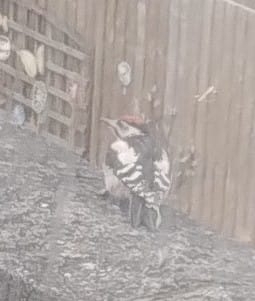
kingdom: Animalia
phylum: Chordata
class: Aves
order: Piciformes
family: Picidae
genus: Dendrocopos
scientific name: Dendrocopos major
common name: Great spotted woodpecker
